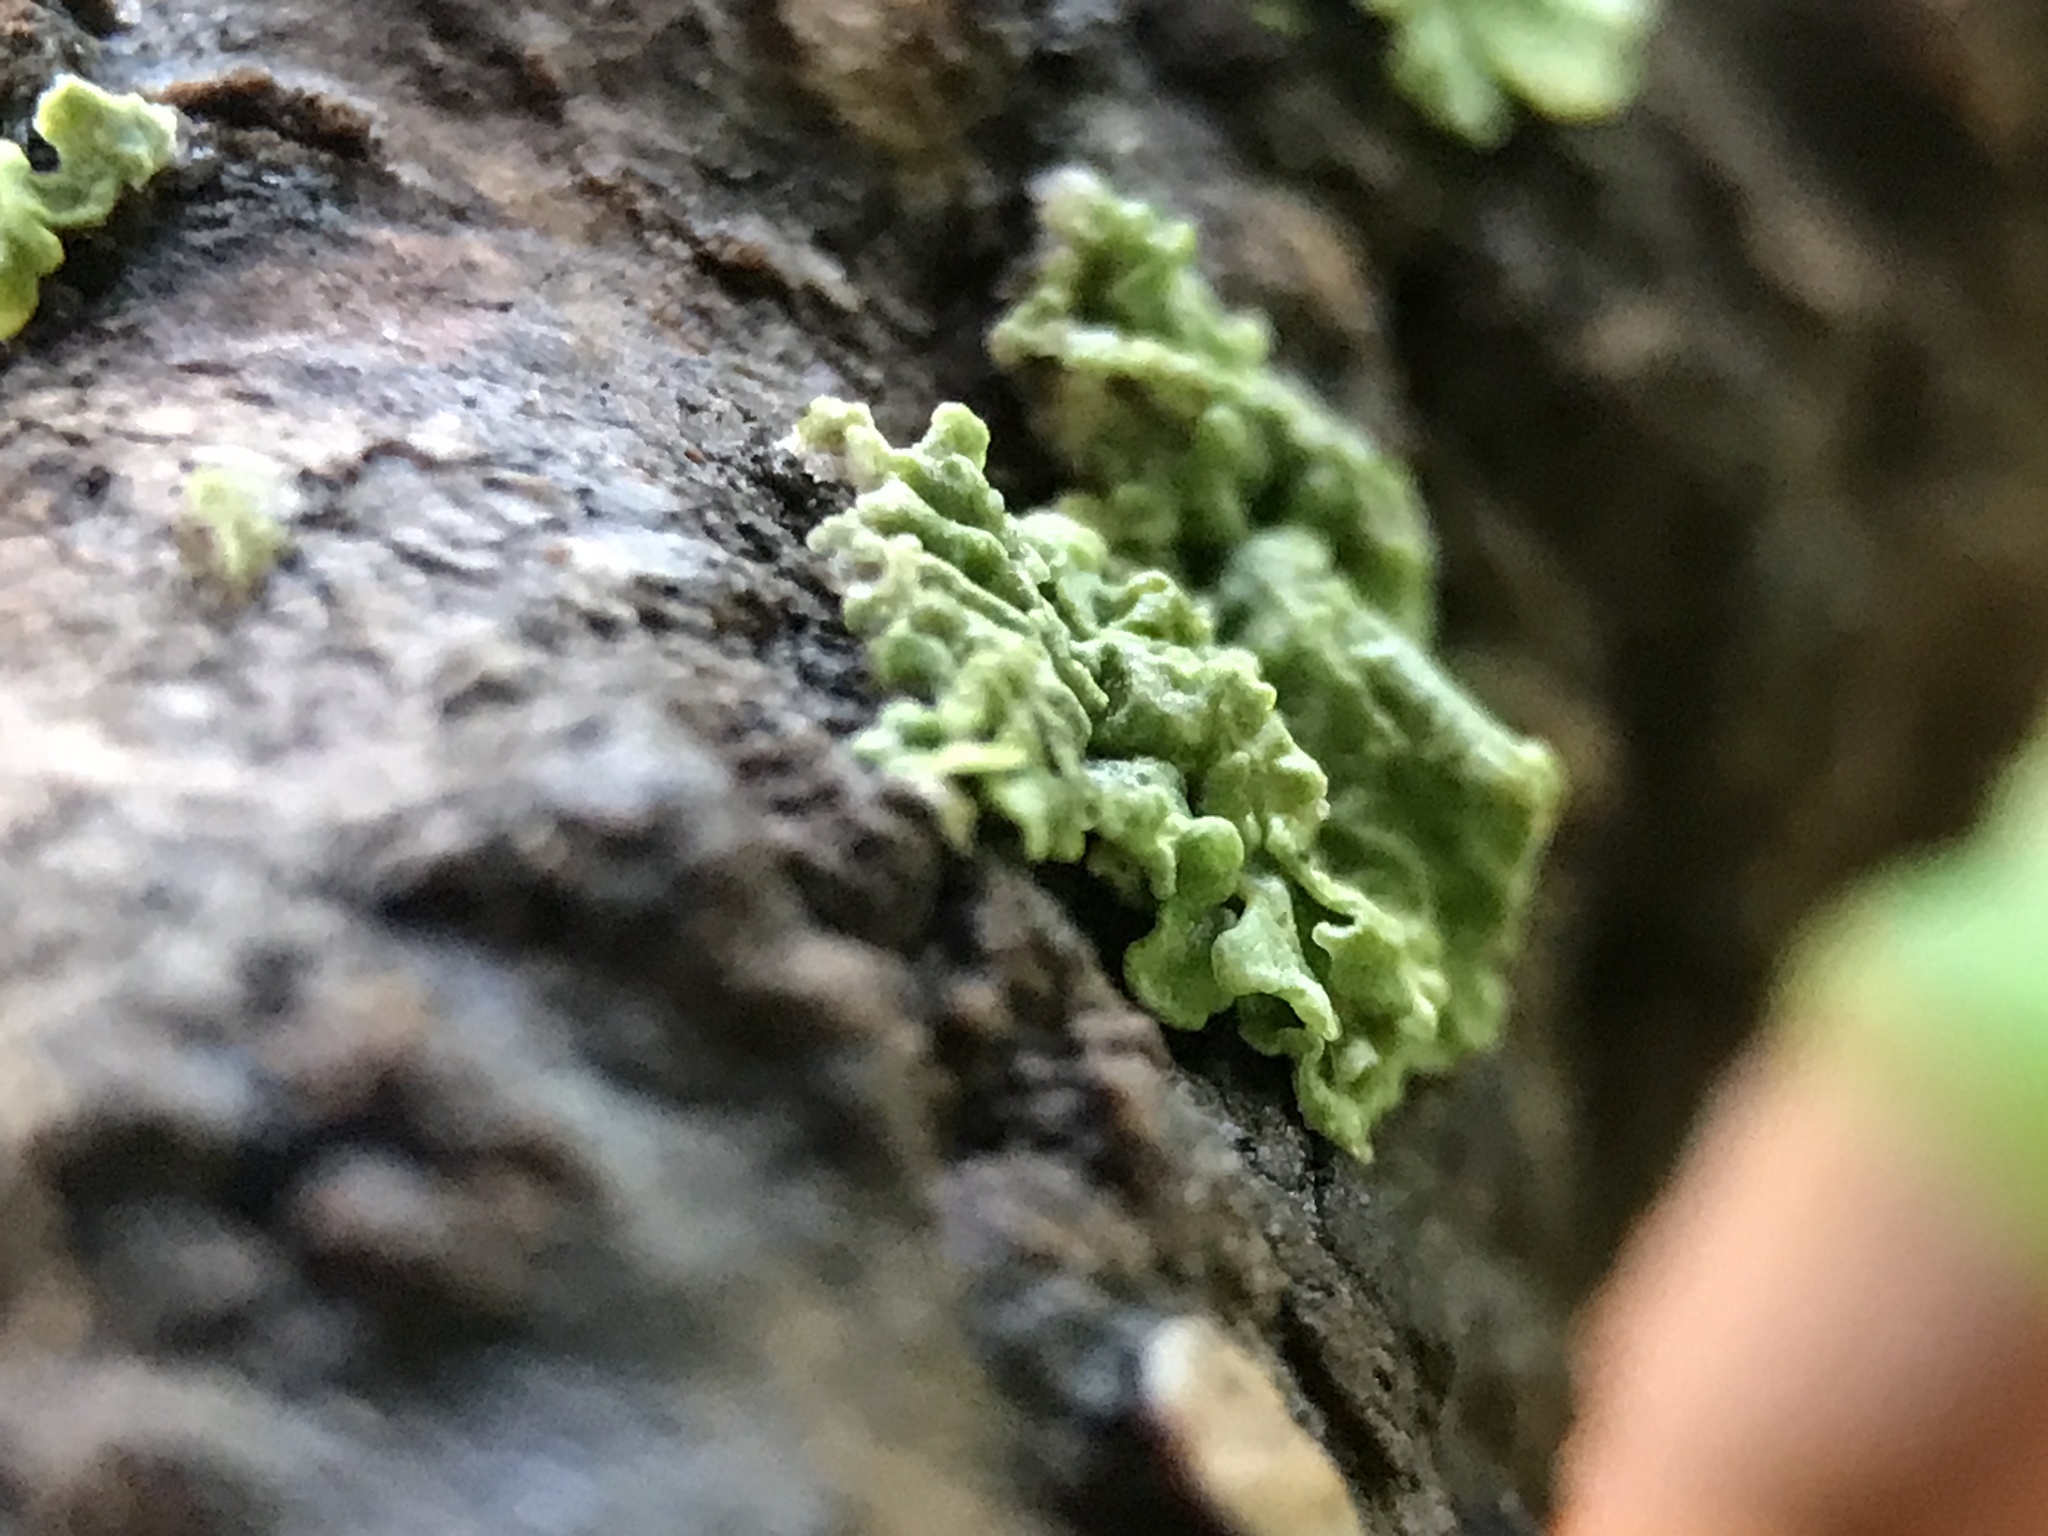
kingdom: Fungi
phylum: Ascomycota
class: Lecanoromycetes
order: Teloschistales
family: Teloschistaceae
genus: Xanthoria
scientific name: Xanthoria parietina
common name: Common orange lichen
